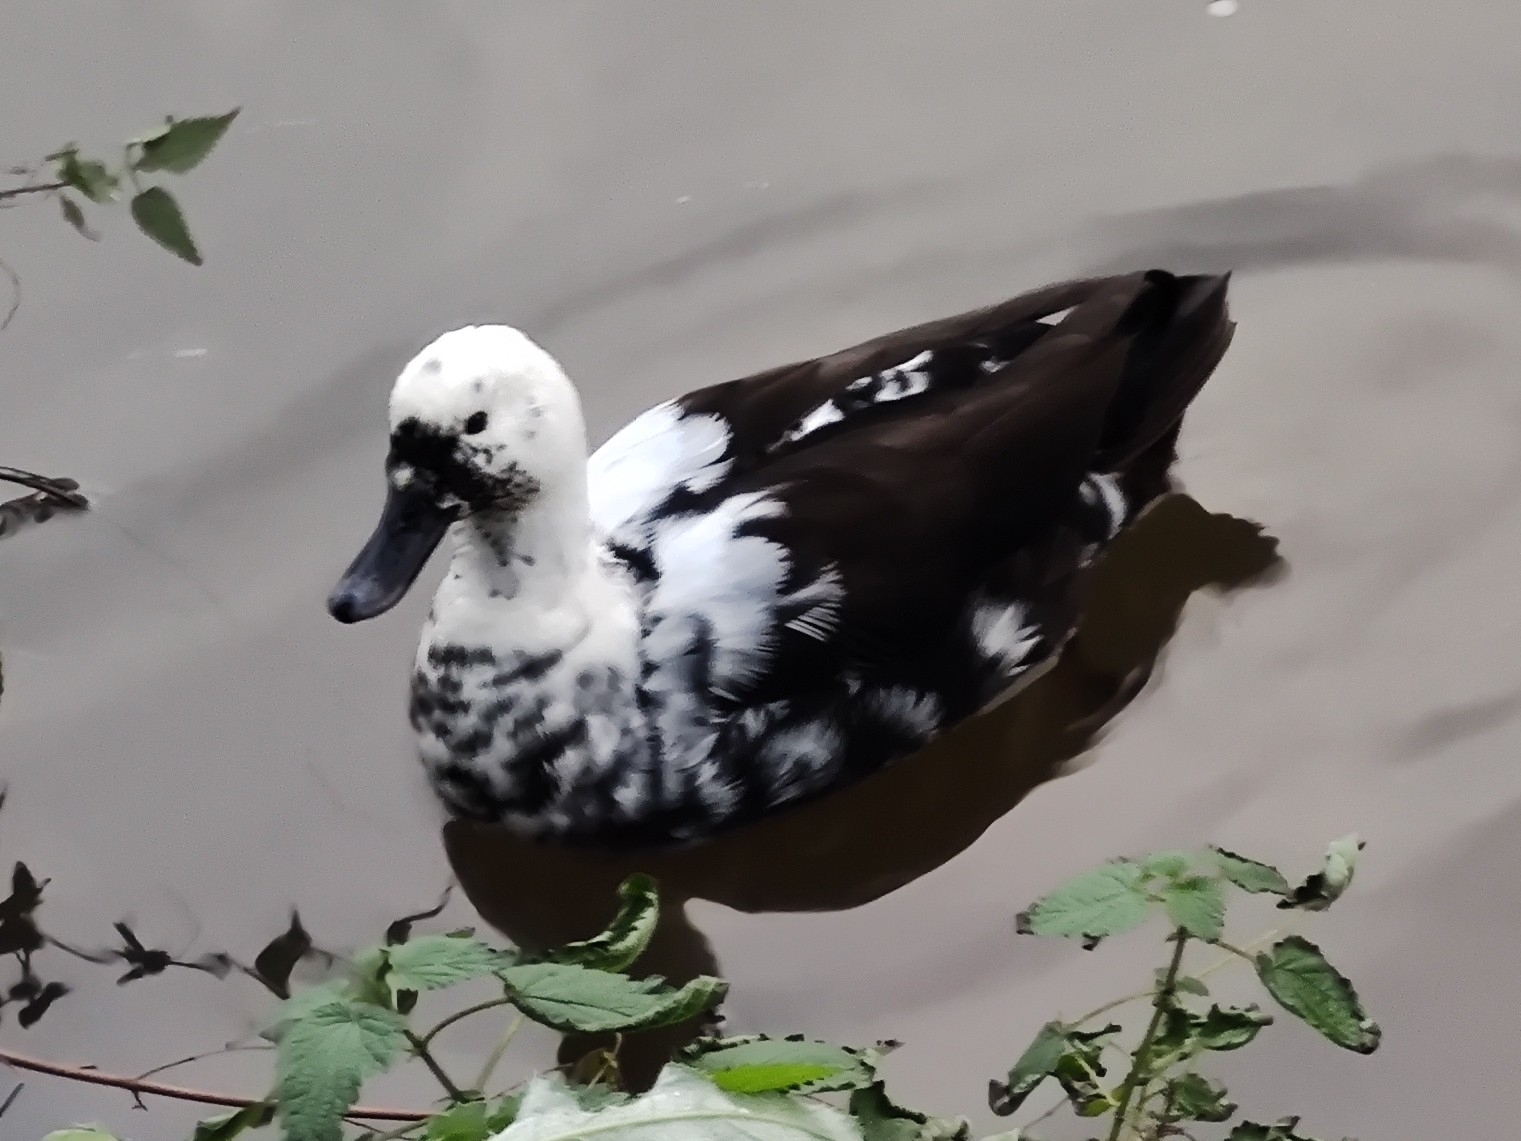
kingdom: Animalia
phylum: Chordata
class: Aves
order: Anseriformes
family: Anatidae
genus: Anas
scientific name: Anas platyrhynchos
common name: Mallard
